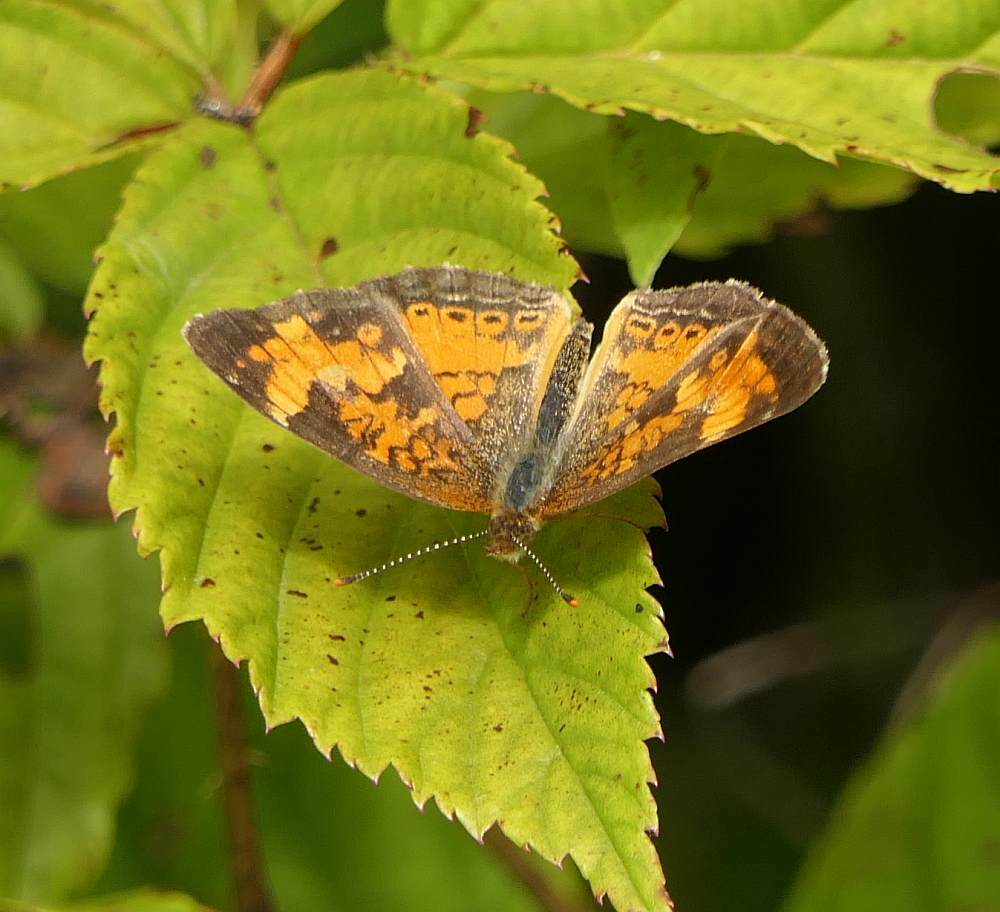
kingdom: Animalia
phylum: Arthropoda
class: Insecta
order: Lepidoptera
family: Nymphalidae
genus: Phyciodes
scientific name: Phyciodes tharos
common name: Pearl crescent
